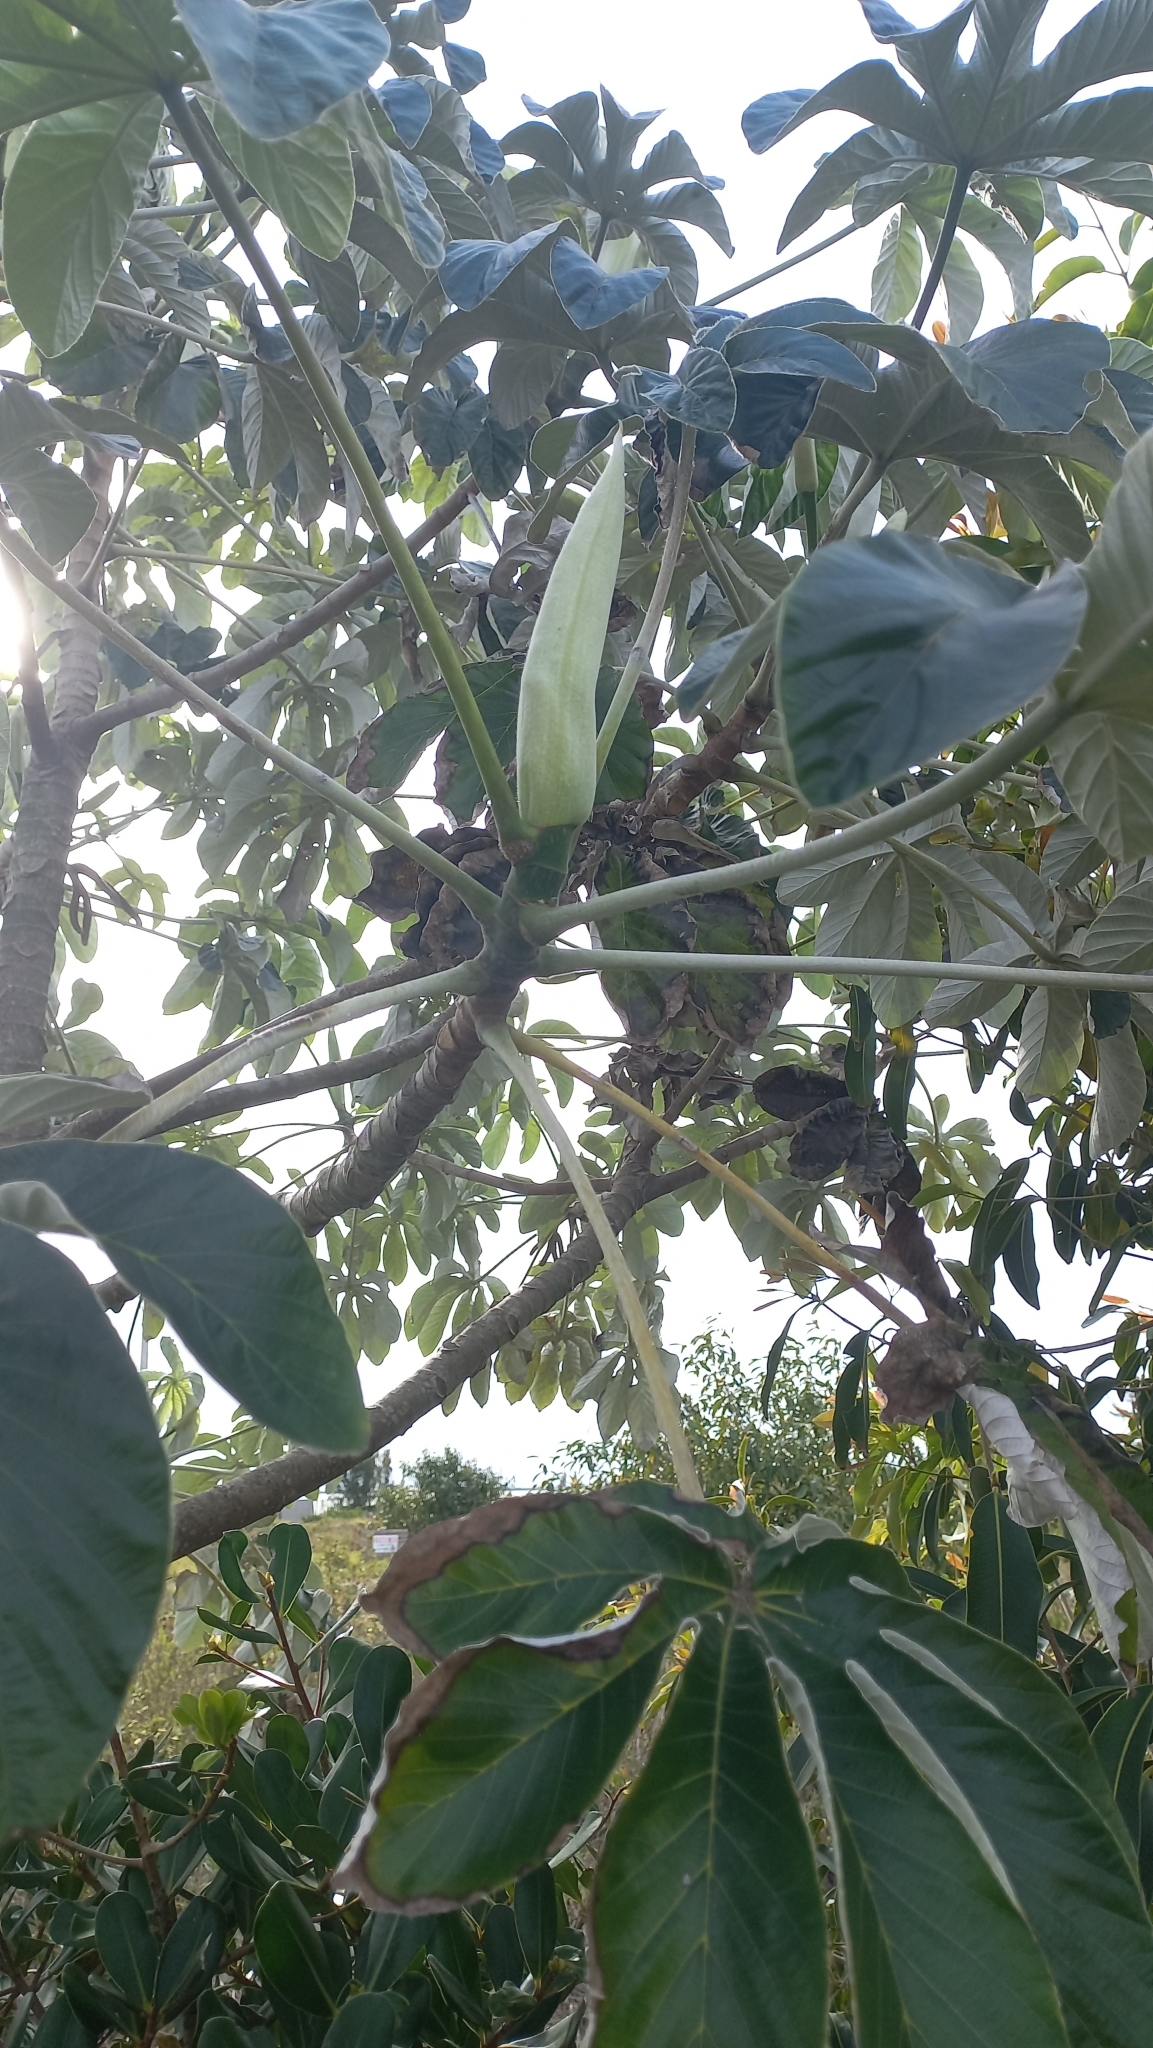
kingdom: Plantae
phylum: Tracheophyta
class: Magnoliopsida
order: Rosales
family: Urticaceae
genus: Cecropia
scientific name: Cecropia pachystachya
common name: Ambay pumpwood
